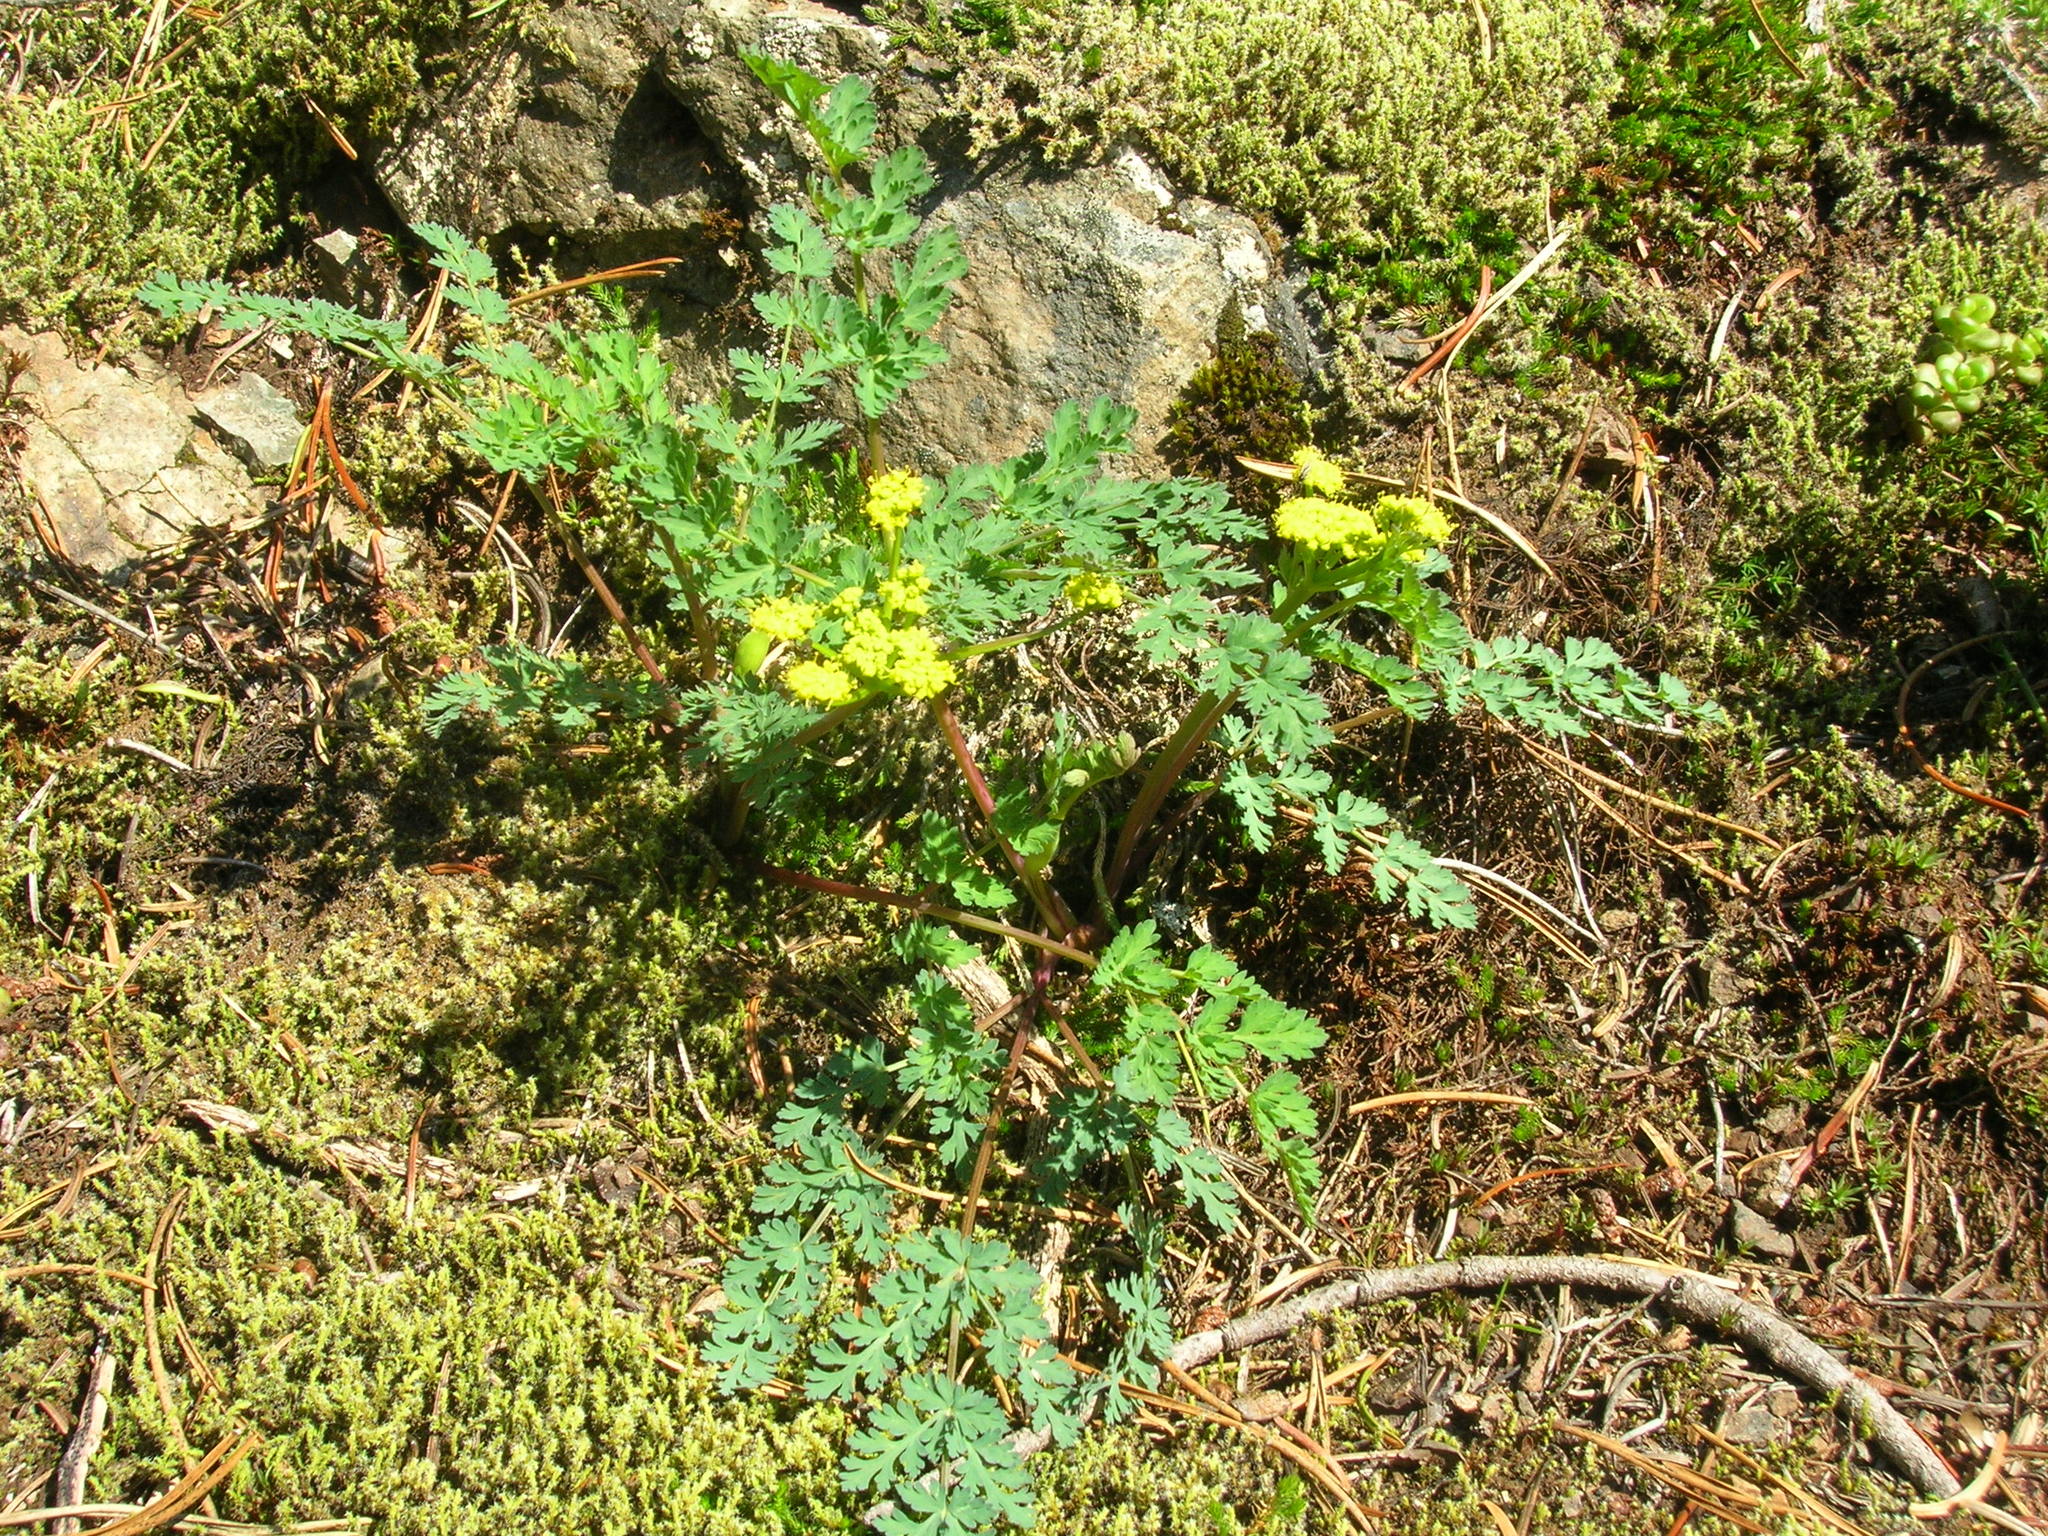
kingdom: Plantae
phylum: Tracheophyta
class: Magnoliopsida
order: Apiales
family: Apiaceae
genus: Lomatium
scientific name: Lomatium martindalei
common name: Cascade desert-parsley
